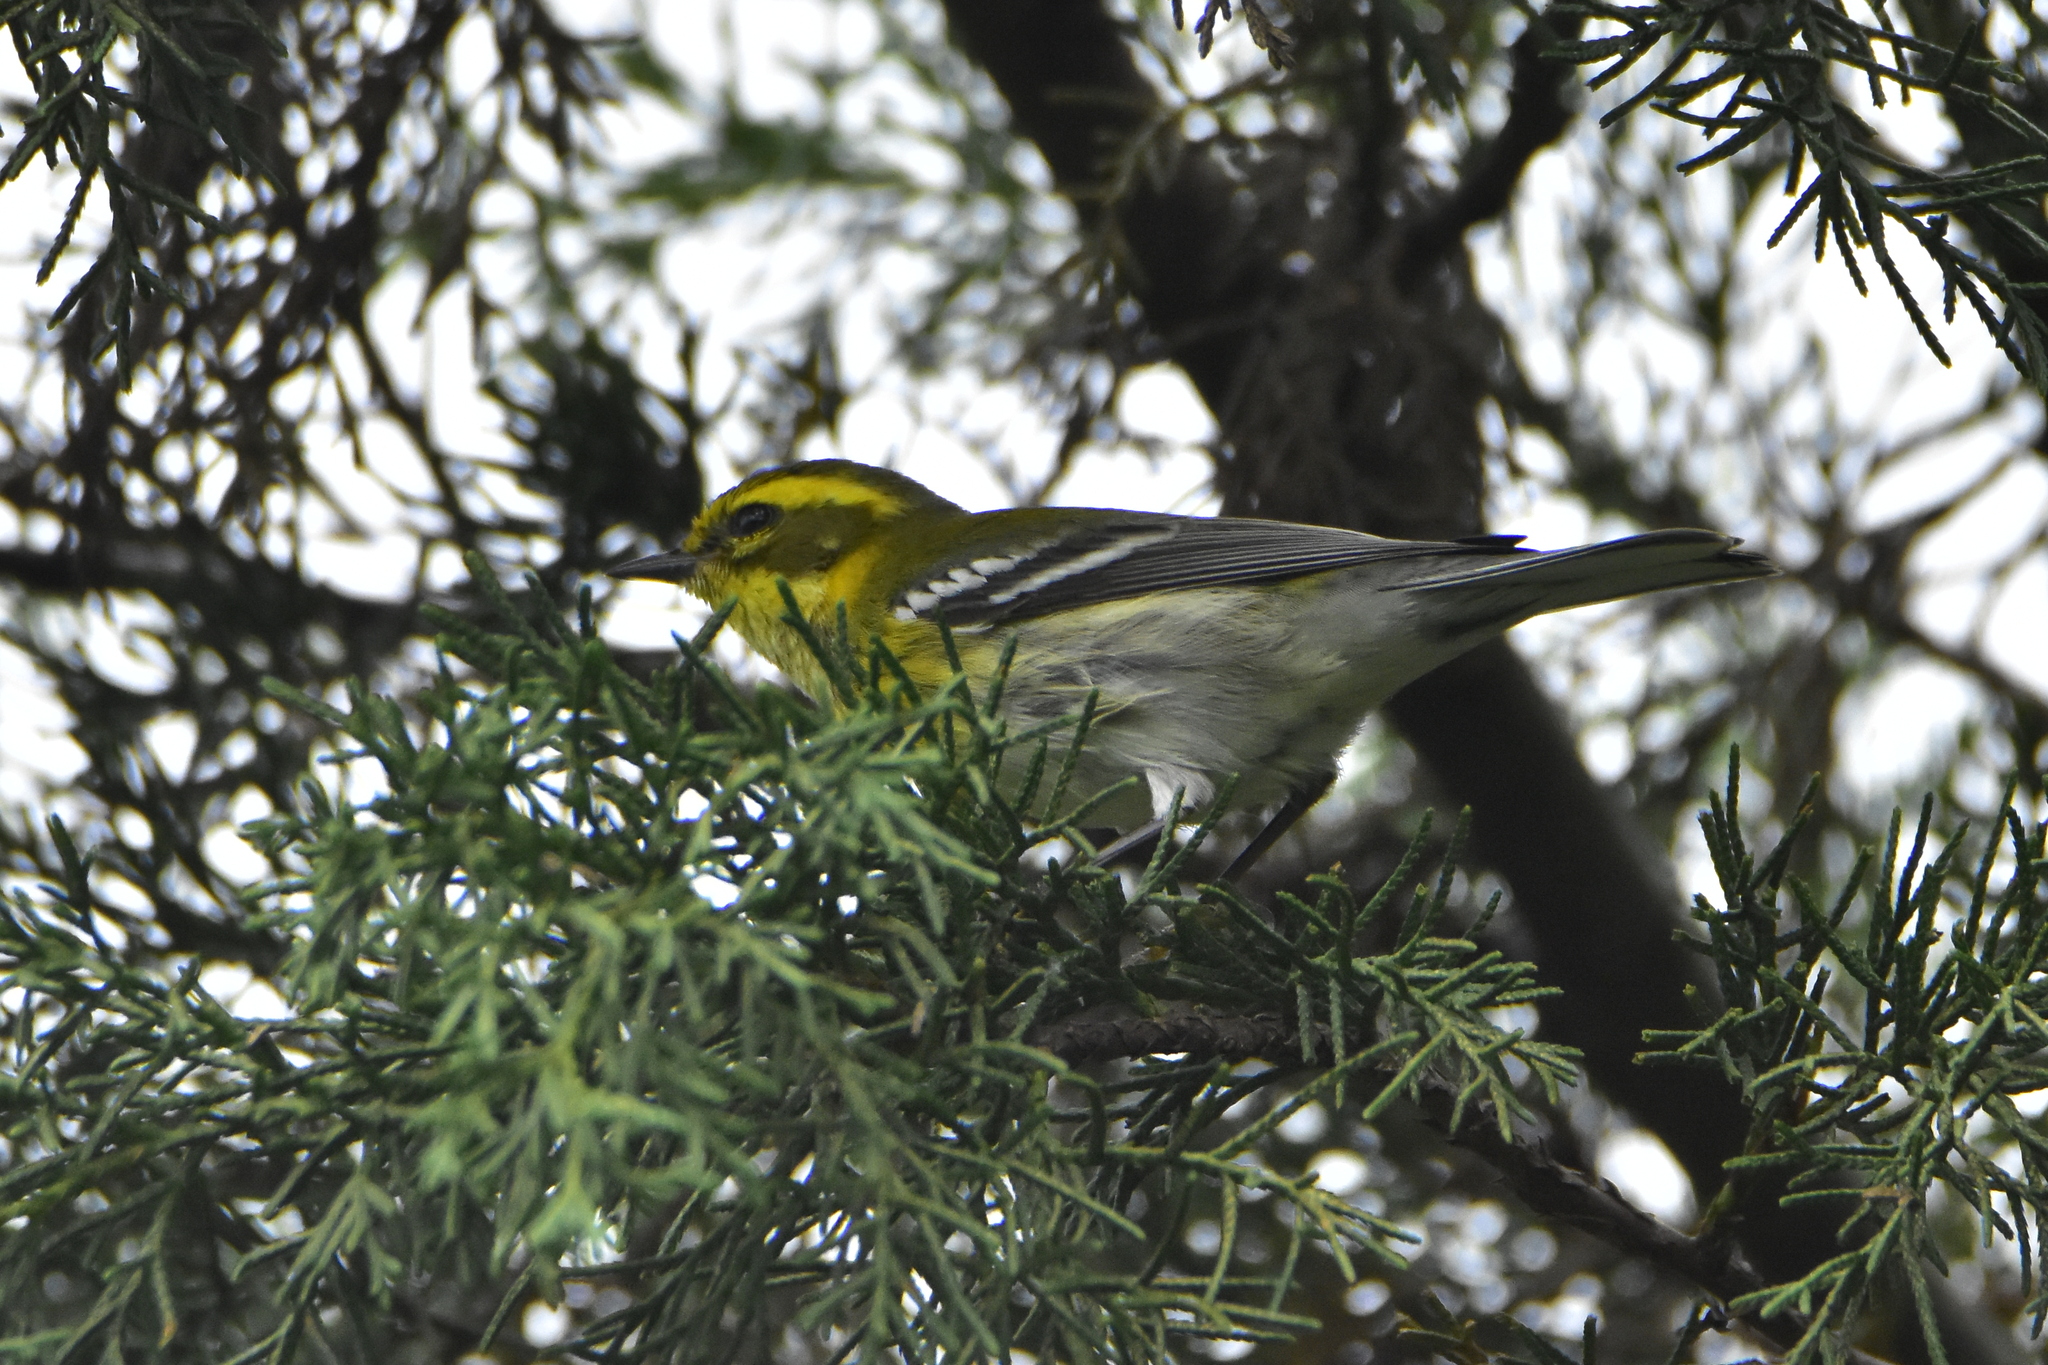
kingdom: Animalia
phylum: Chordata
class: Aves
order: Passeriformes
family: Parulidae
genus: Setophaga
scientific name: Setophaga townsendi
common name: Townsend's warbler
